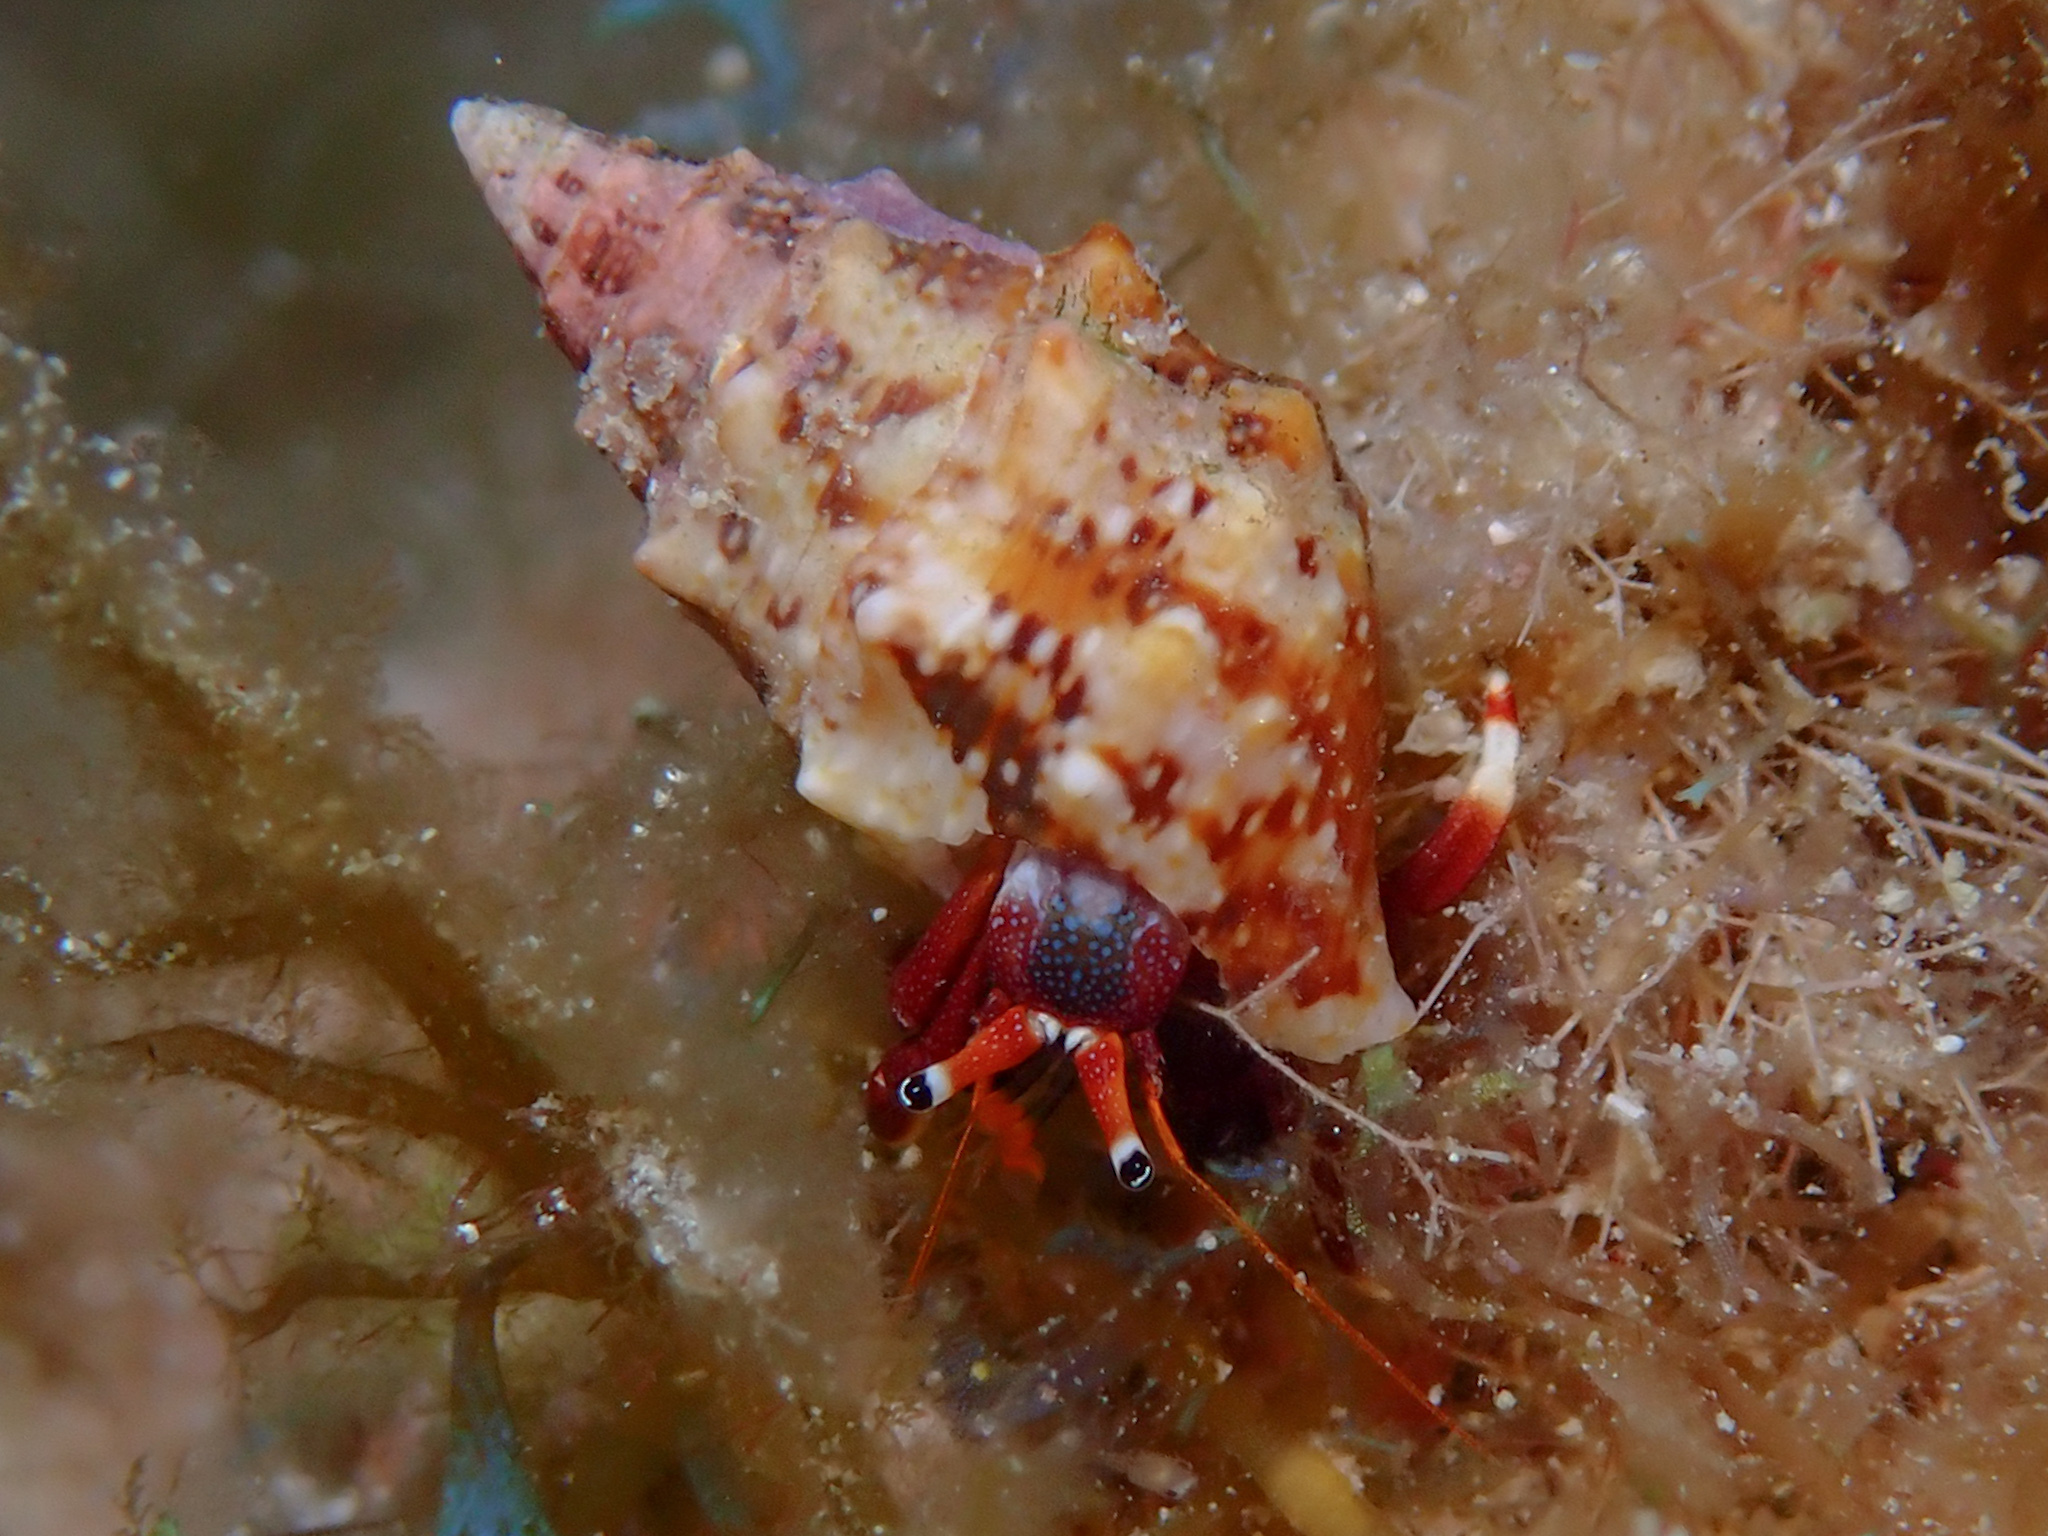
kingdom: Animalia
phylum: Arthropoda
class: Malacostraca
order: Decapoda
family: Diogenidae
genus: Calcinus
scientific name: Calcinus tibicen
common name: Orangeclaw hermit
